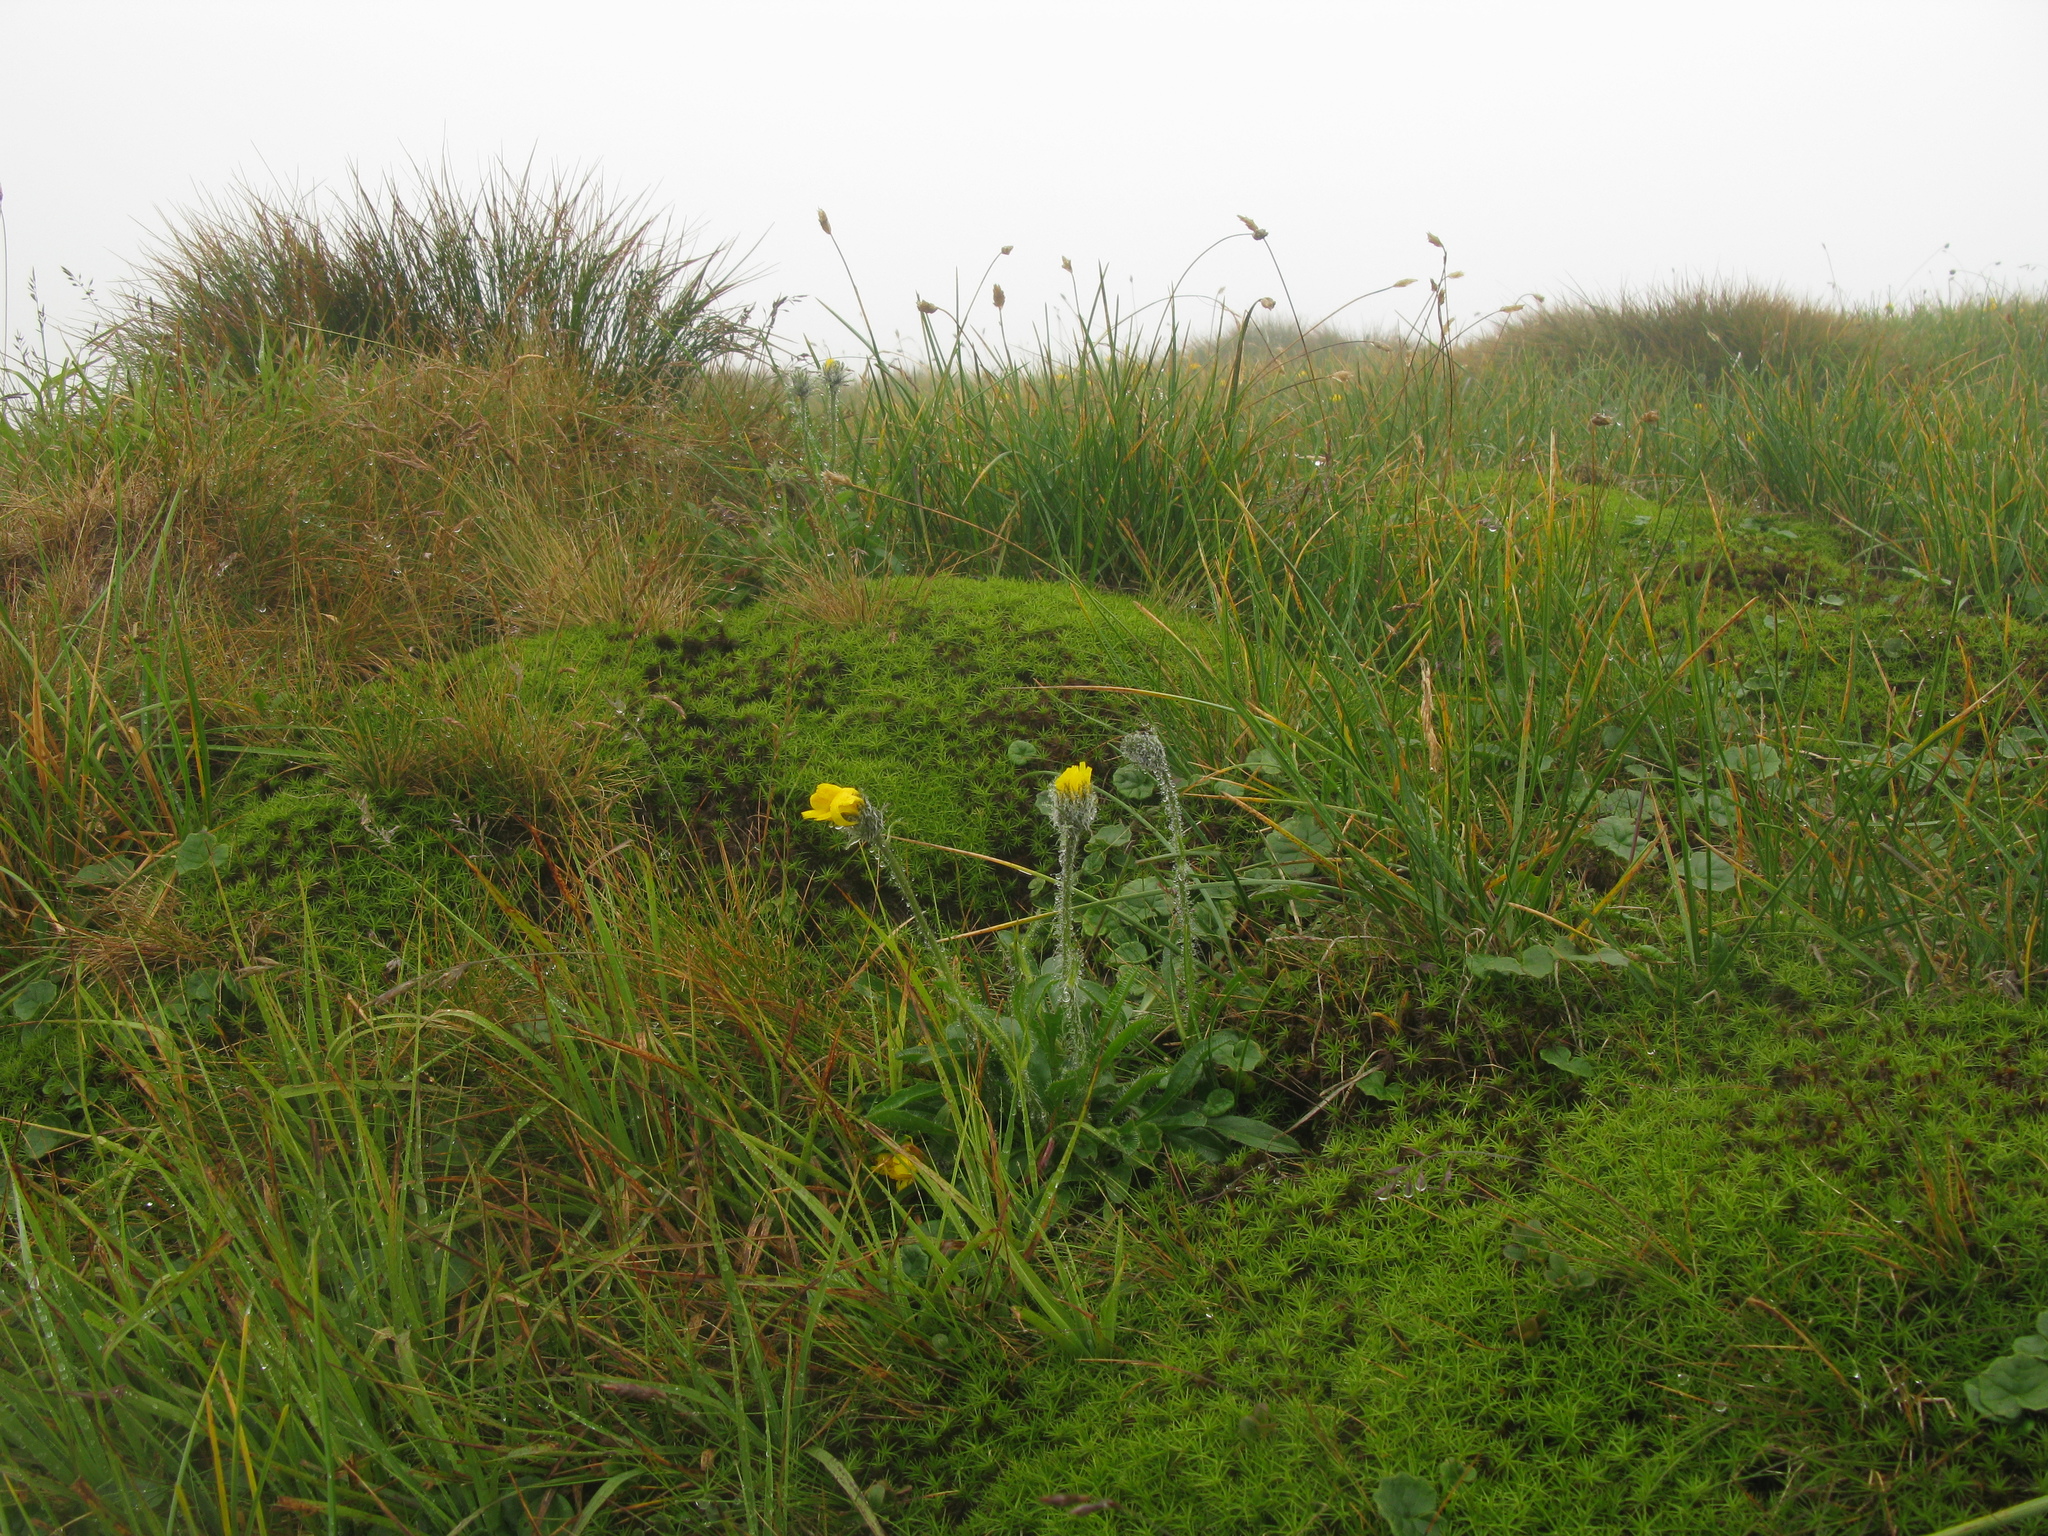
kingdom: Plantae
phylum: Tracheophyta
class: Magnoliopsida
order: Asterales
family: Asteraceae
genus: Hieracium
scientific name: Hieracium alpinum
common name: Alpine hawkweed
